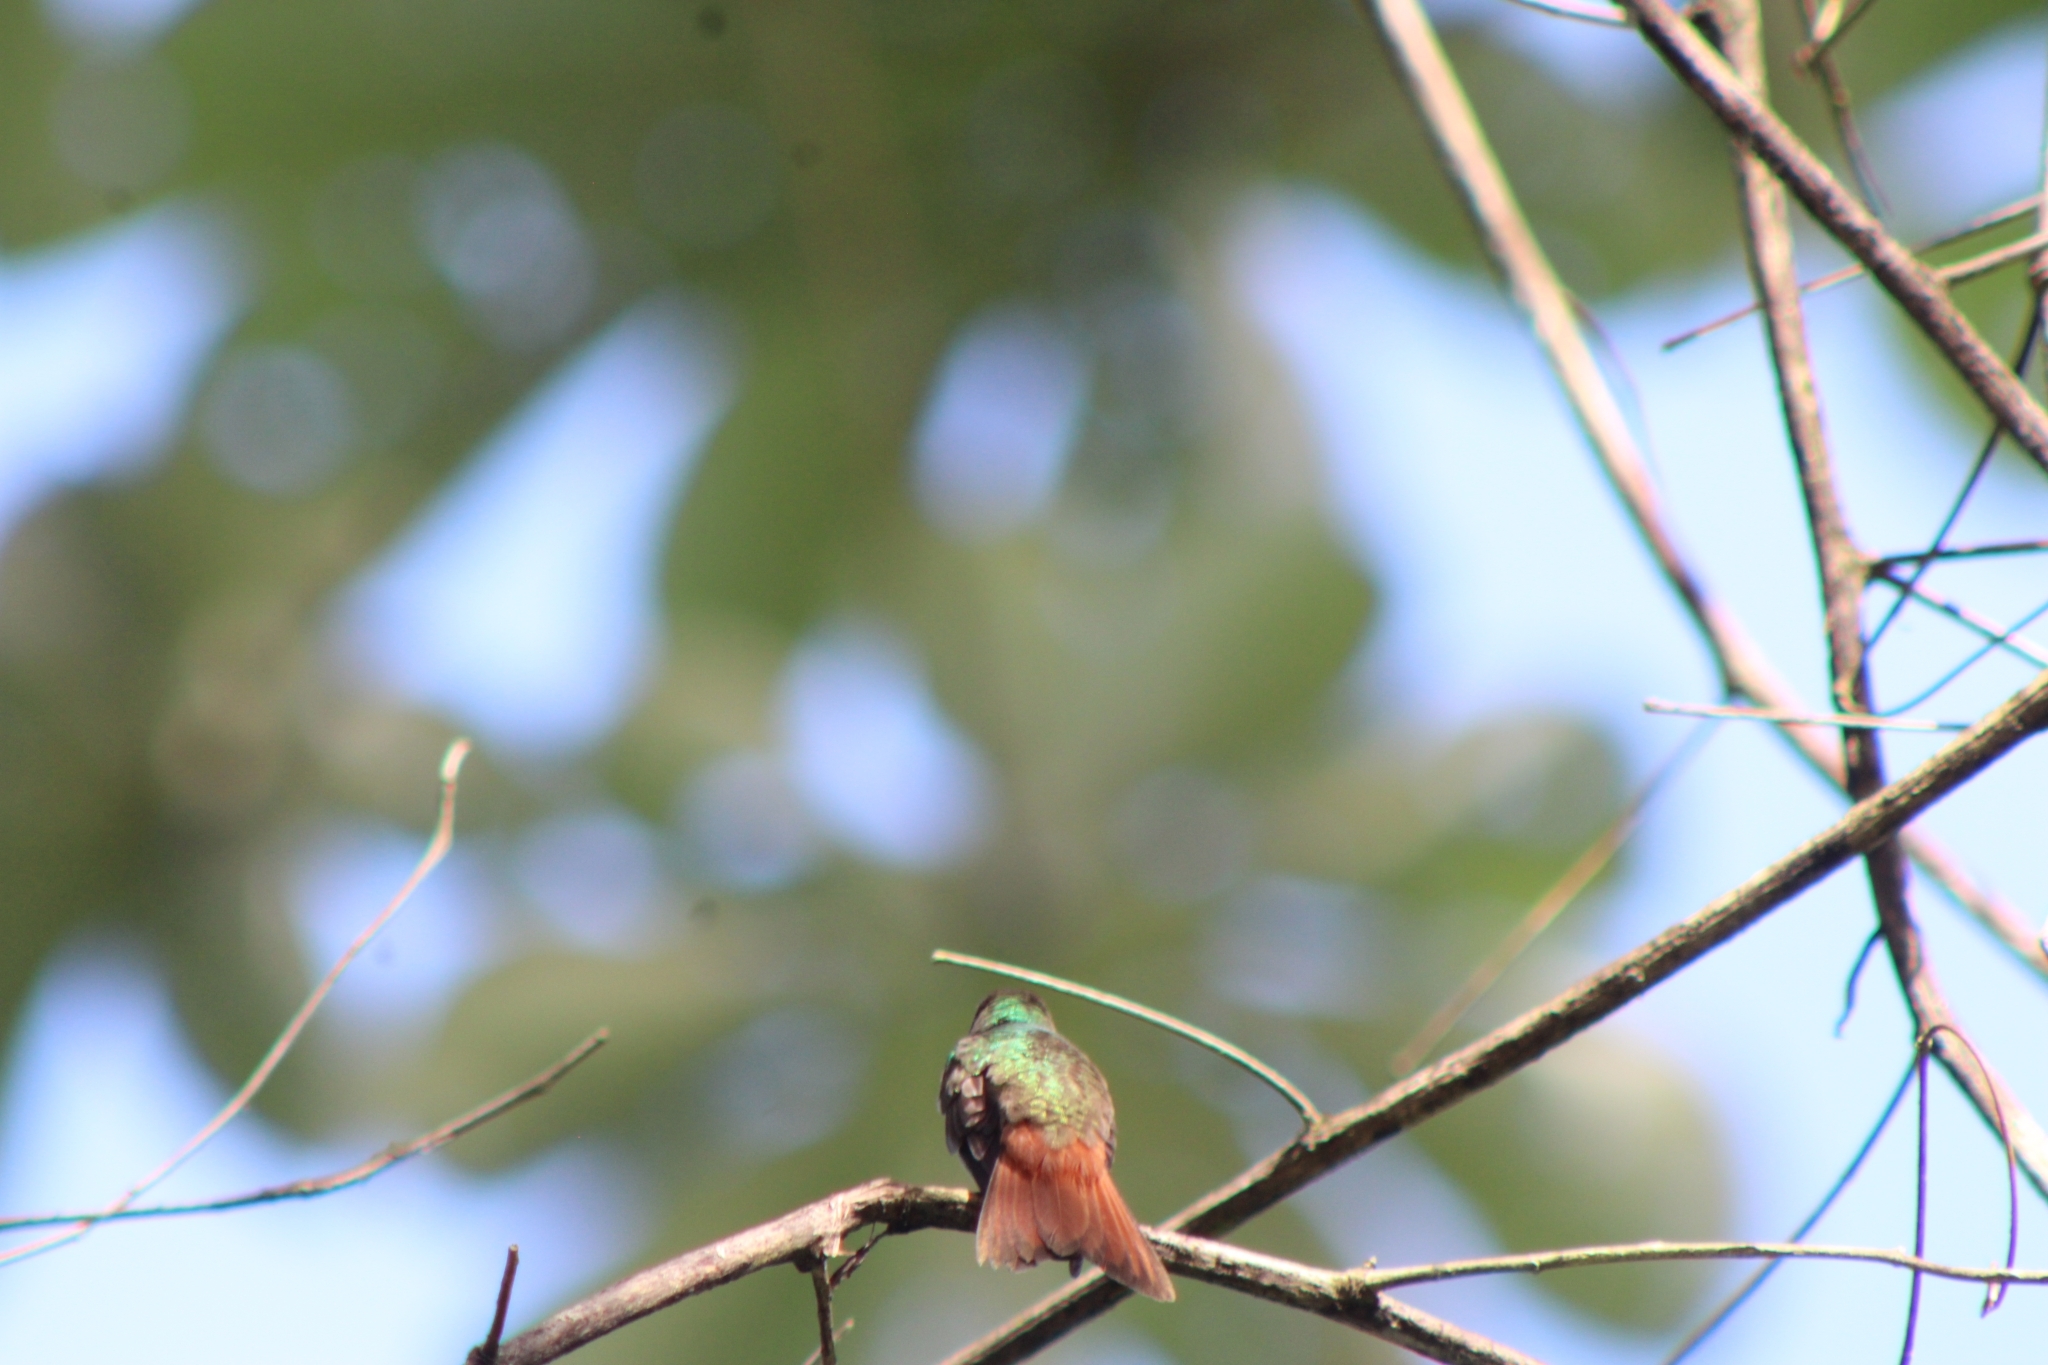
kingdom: Animalia
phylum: Chordata
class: Aves
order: Apodiformes
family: Trochilidae
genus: Amazilia
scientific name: Amazilia tzacatl
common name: Rufous-tailed hummingbird
